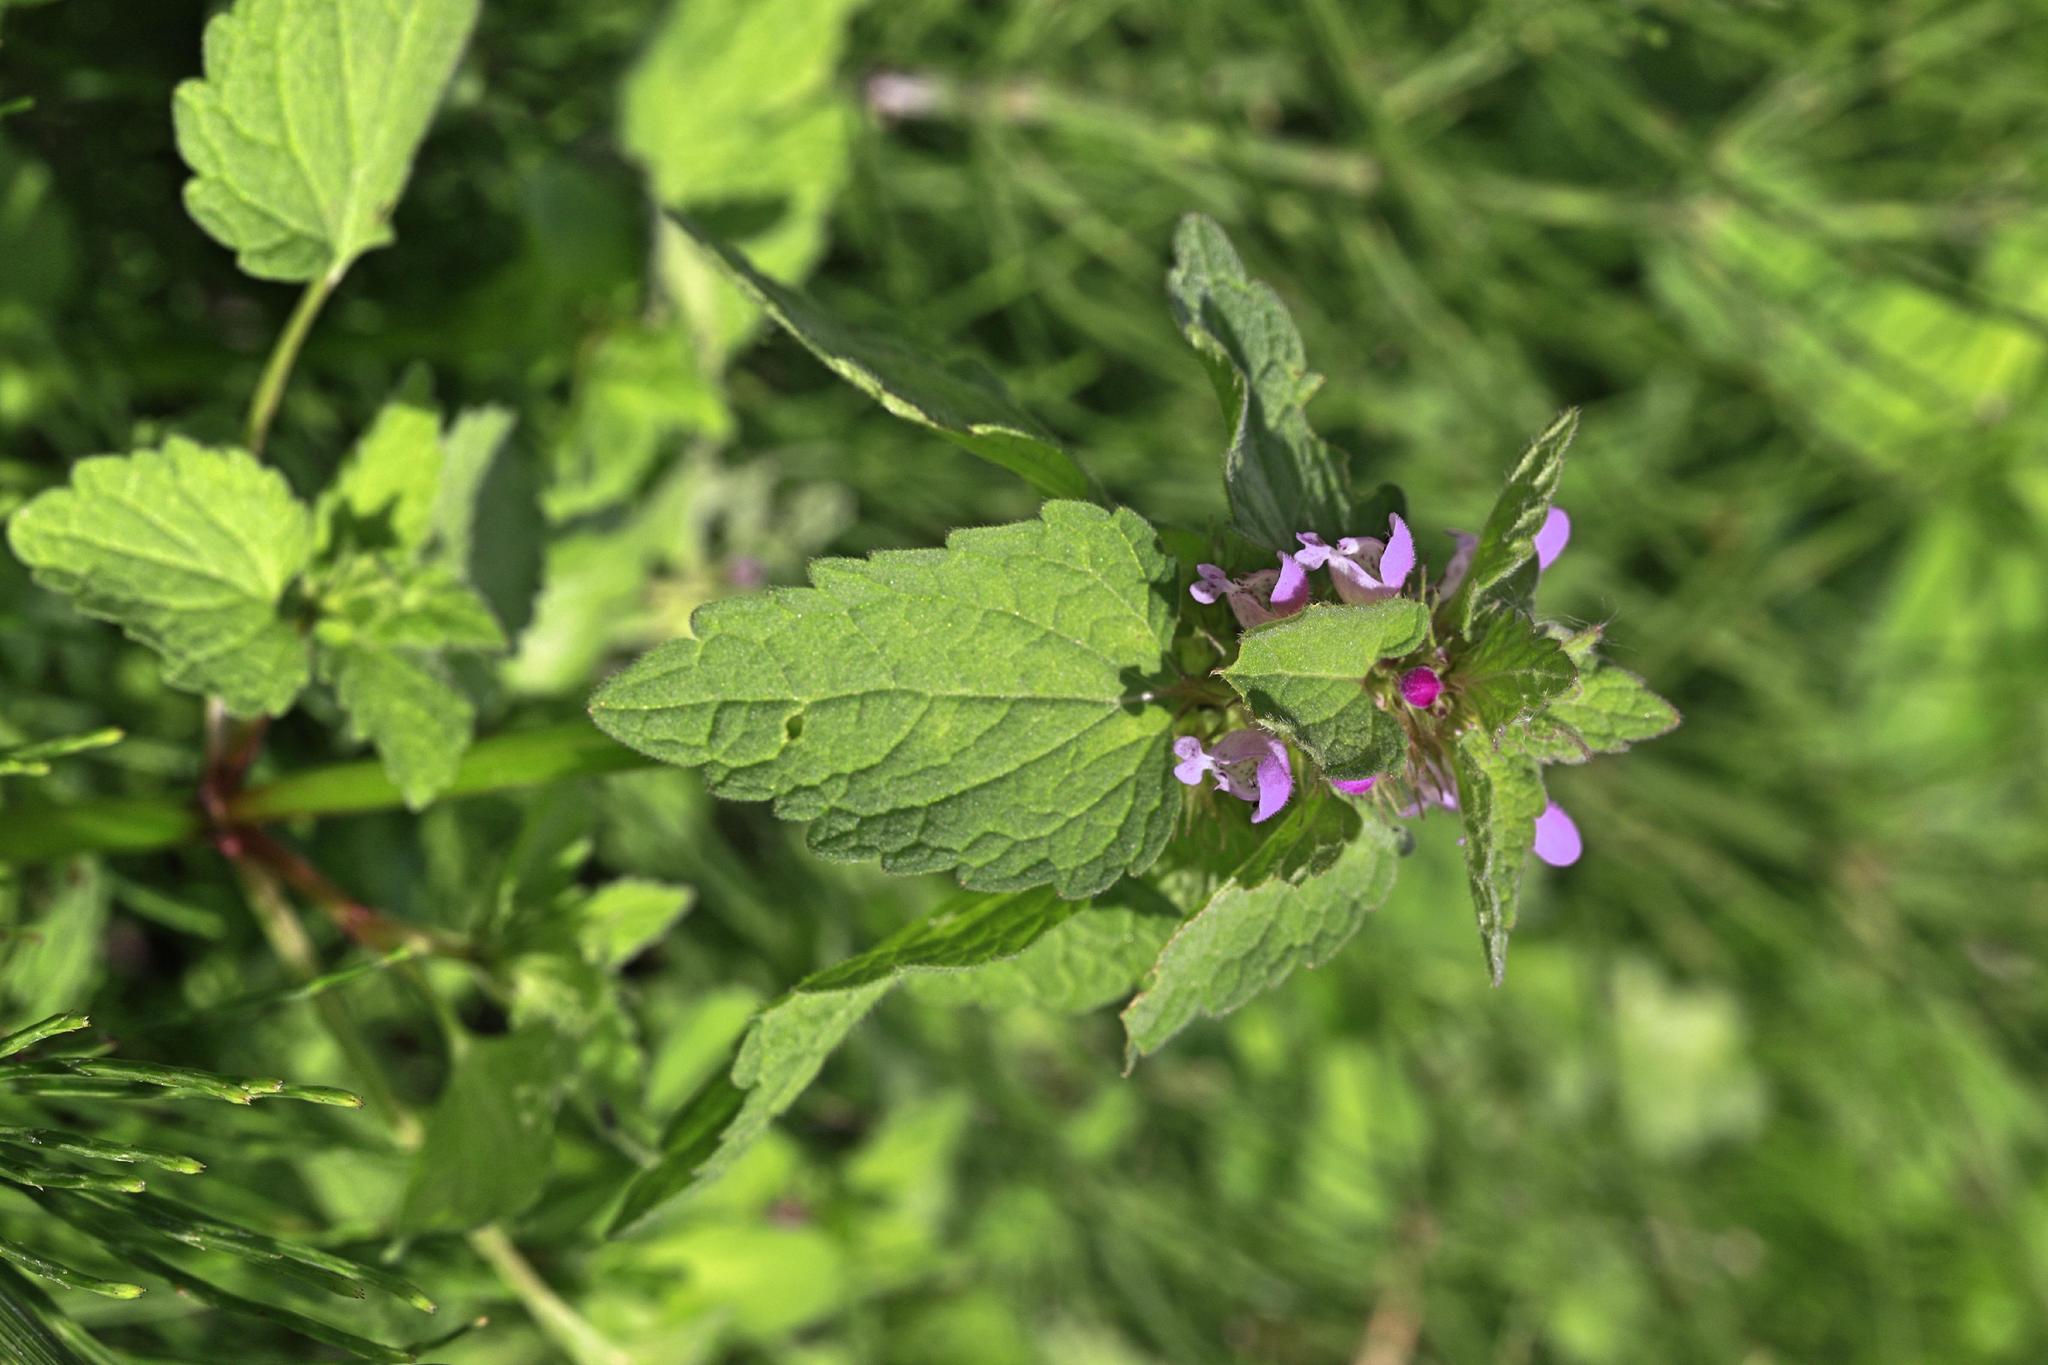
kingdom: Plantae
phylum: Tracheophyta
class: Magnoliopsida
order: Lamiales
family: Lamiaceae
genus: Lamium
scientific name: Lamium purpureum
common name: Red dead-nettle
